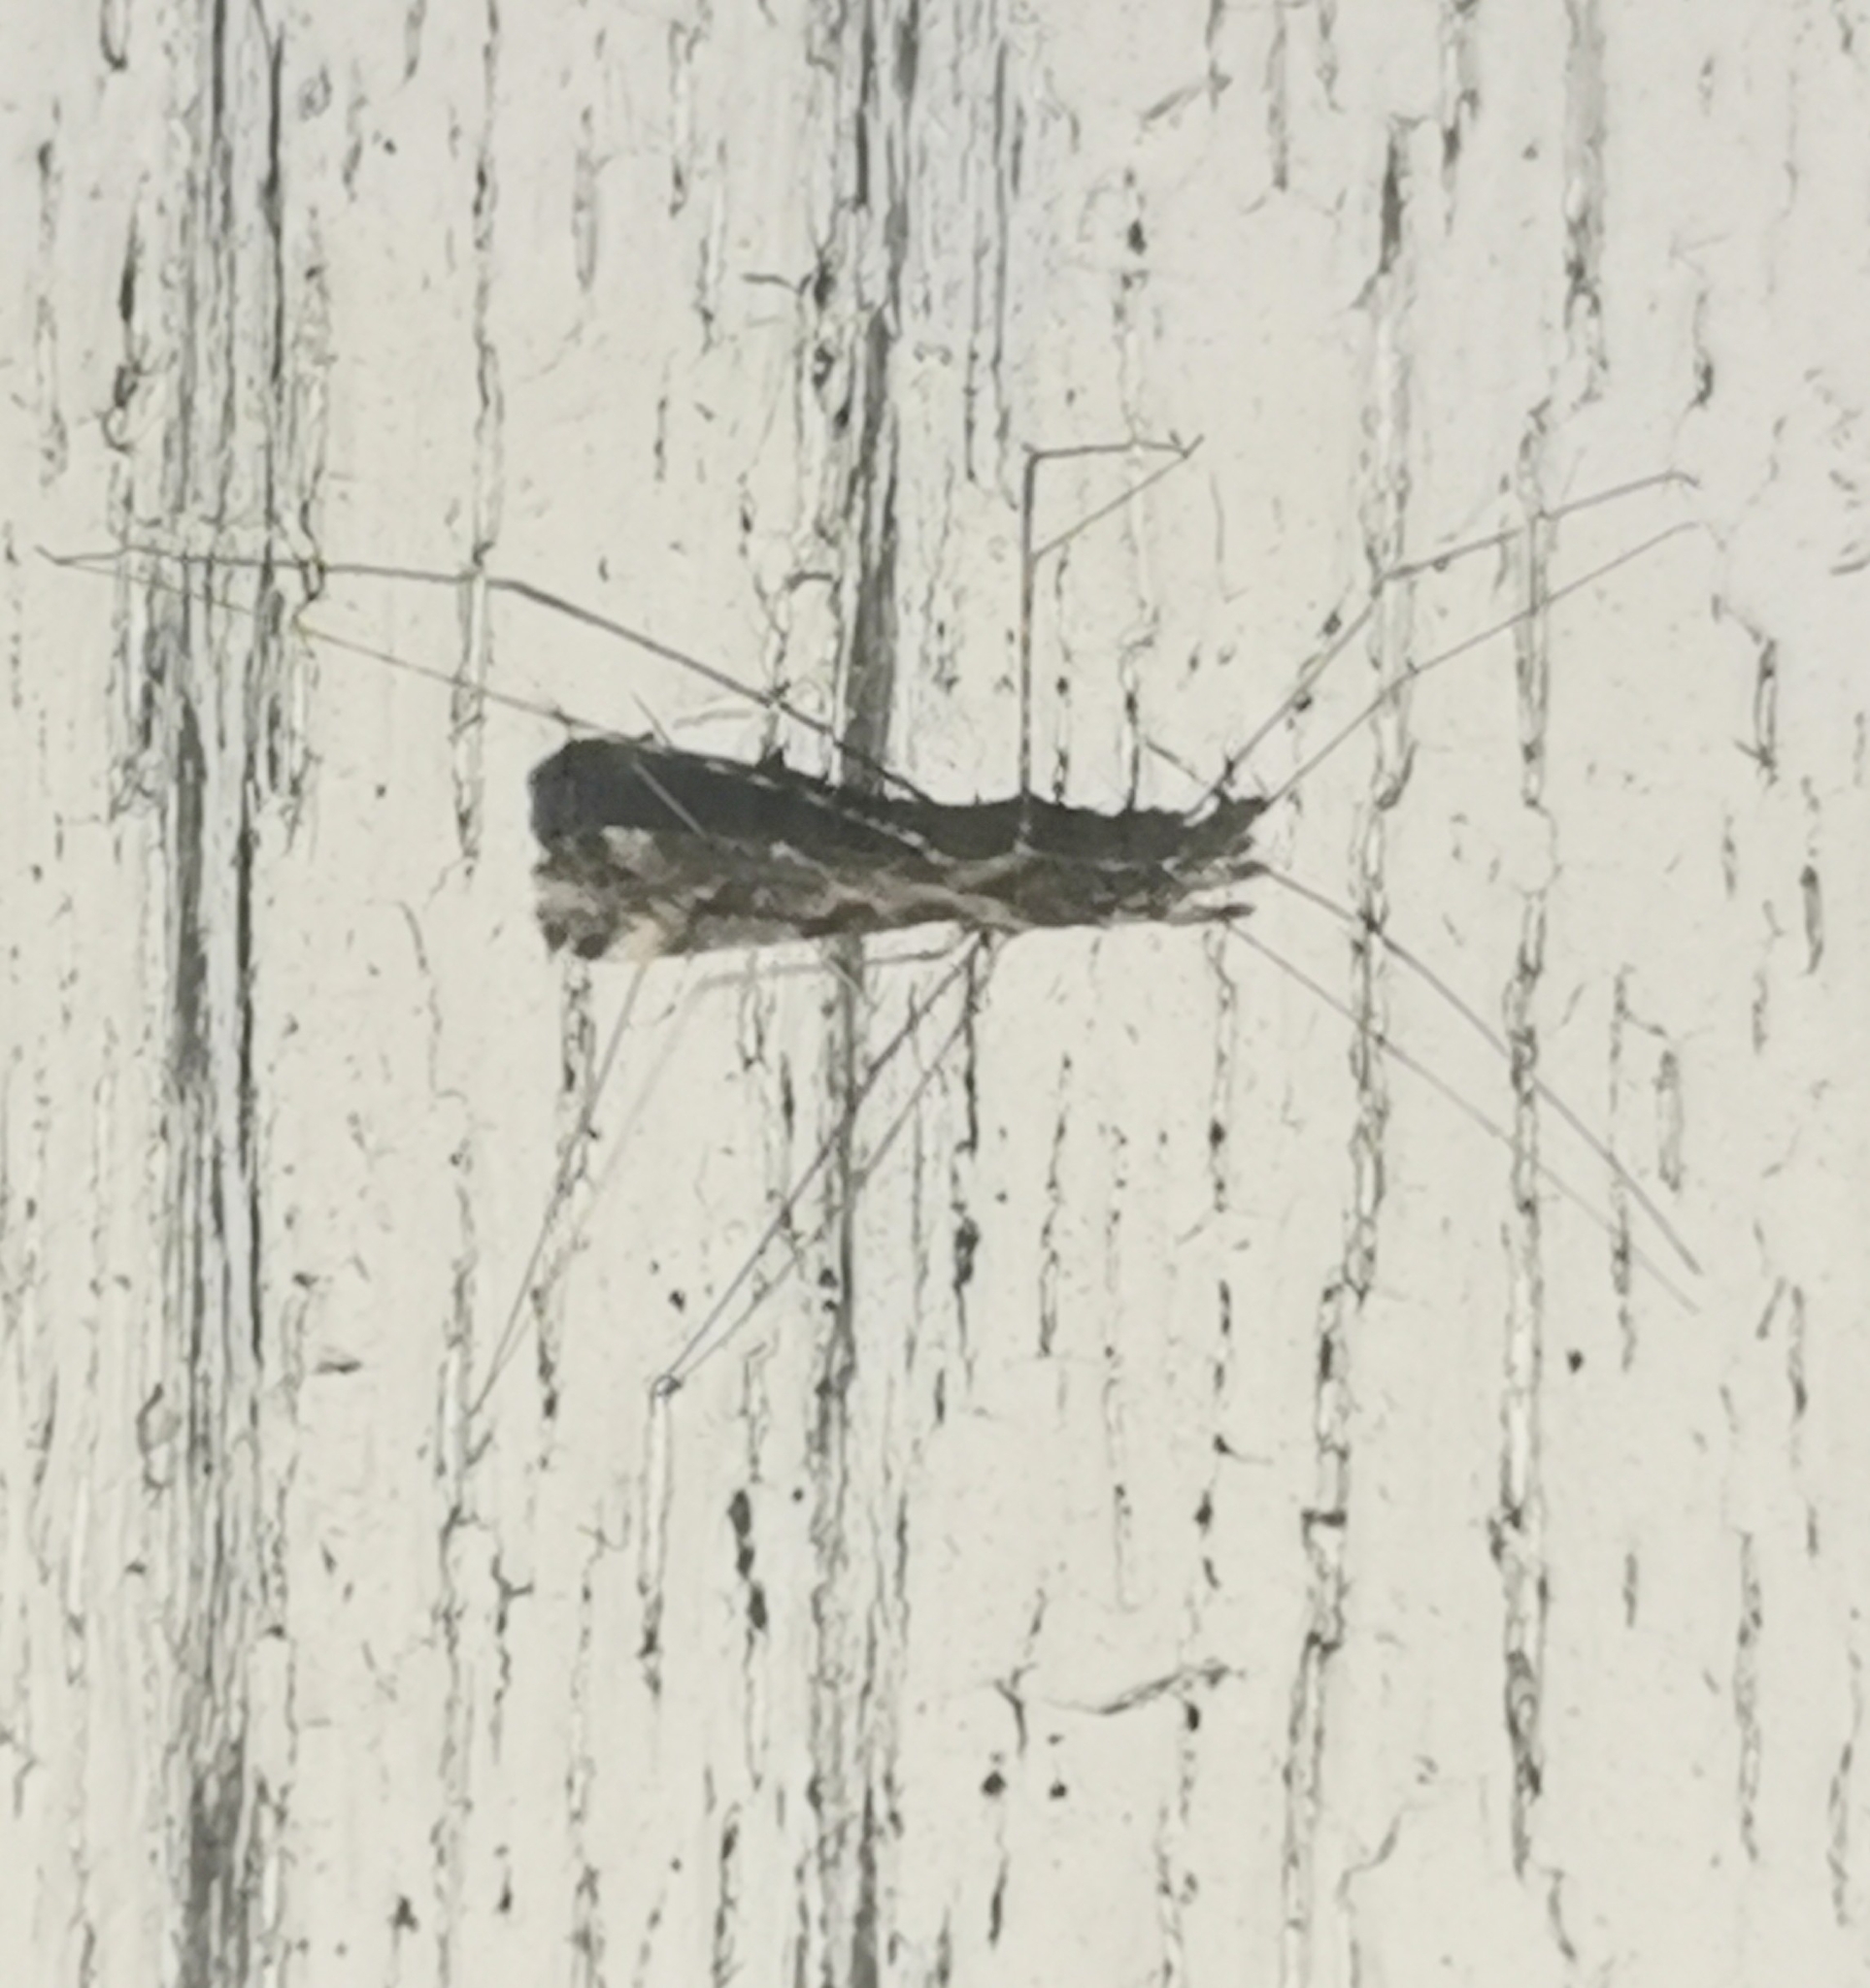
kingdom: Animalia
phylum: Arthropoda
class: Insecta
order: Hemiptera
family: Reduviidae
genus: Empicoris
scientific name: Empicoris vagabundus
